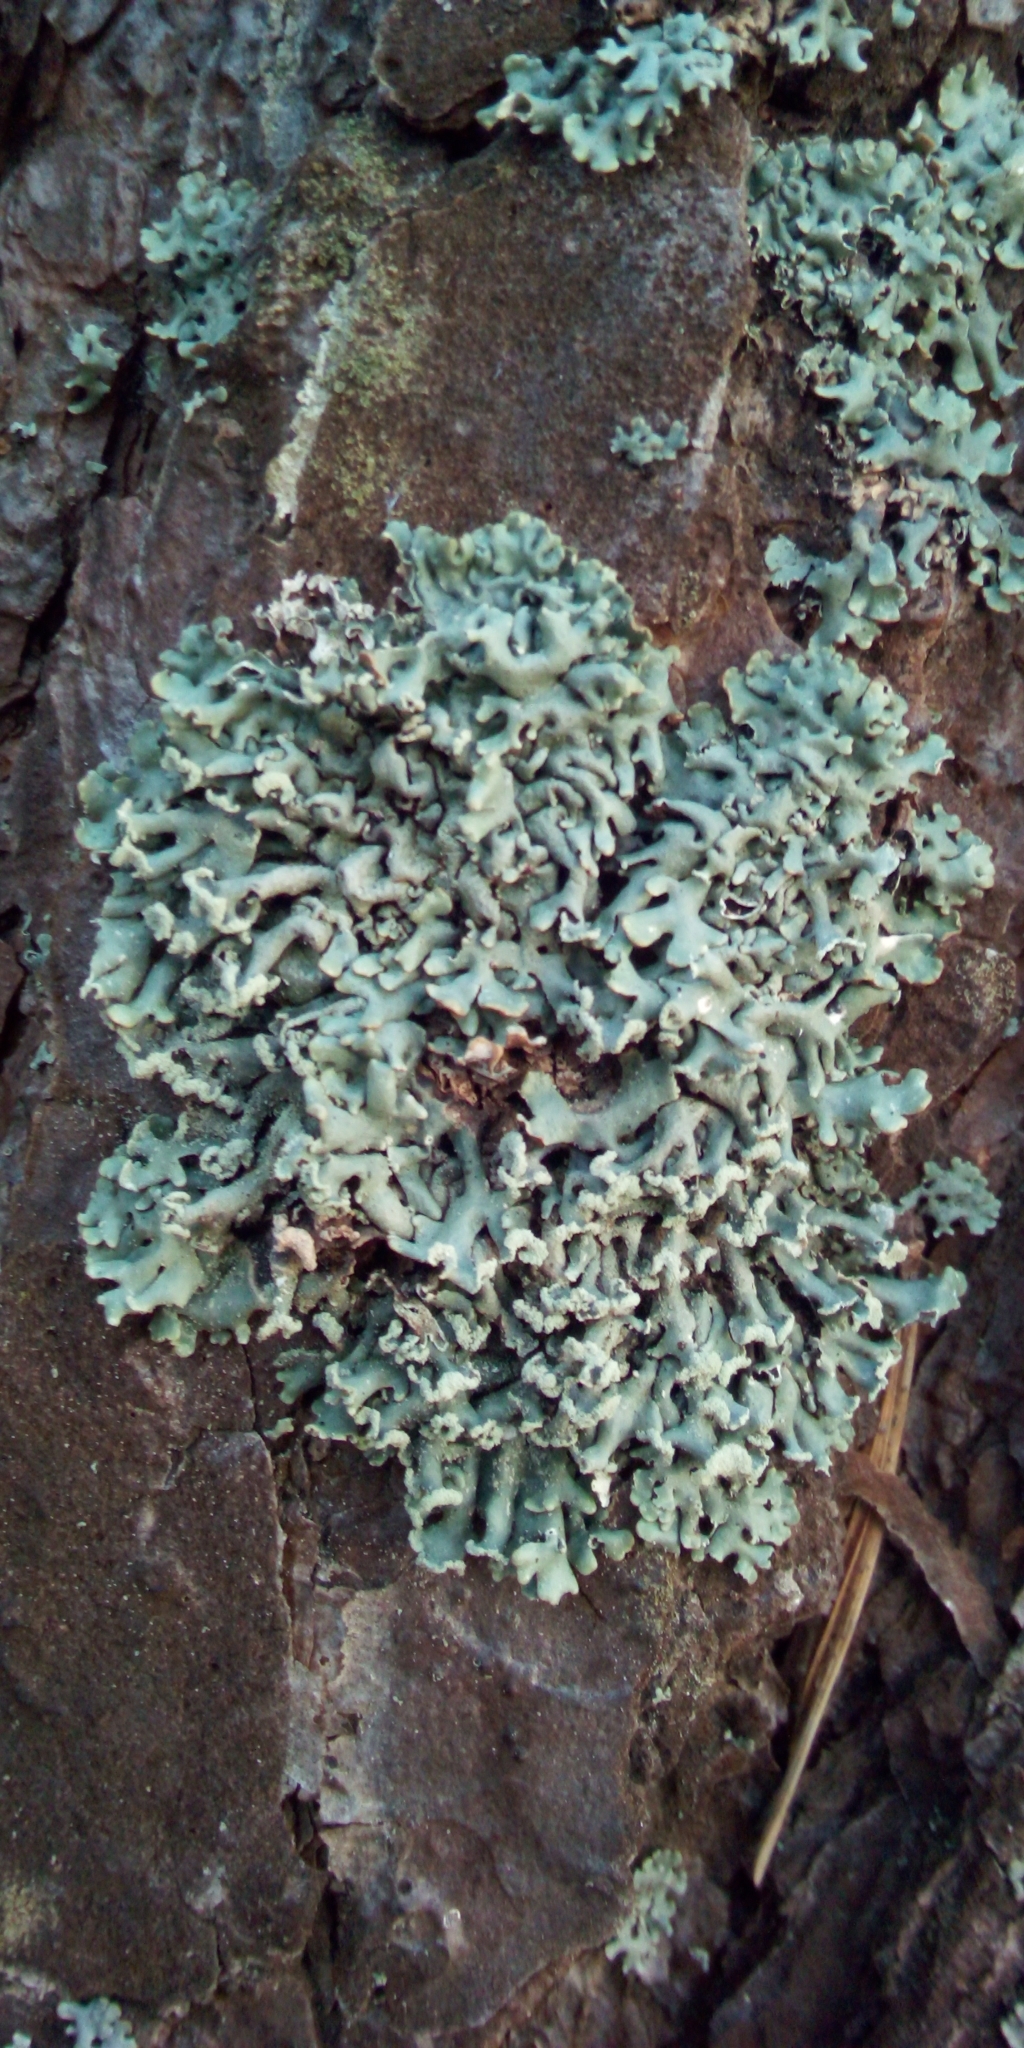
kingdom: Fungi
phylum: Ascomycota
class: Lecanoromycetes
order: Lecanorales
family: Parmeliaceae
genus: Hypogymnia
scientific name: Hypogymnia physodes
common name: Dark crottle
